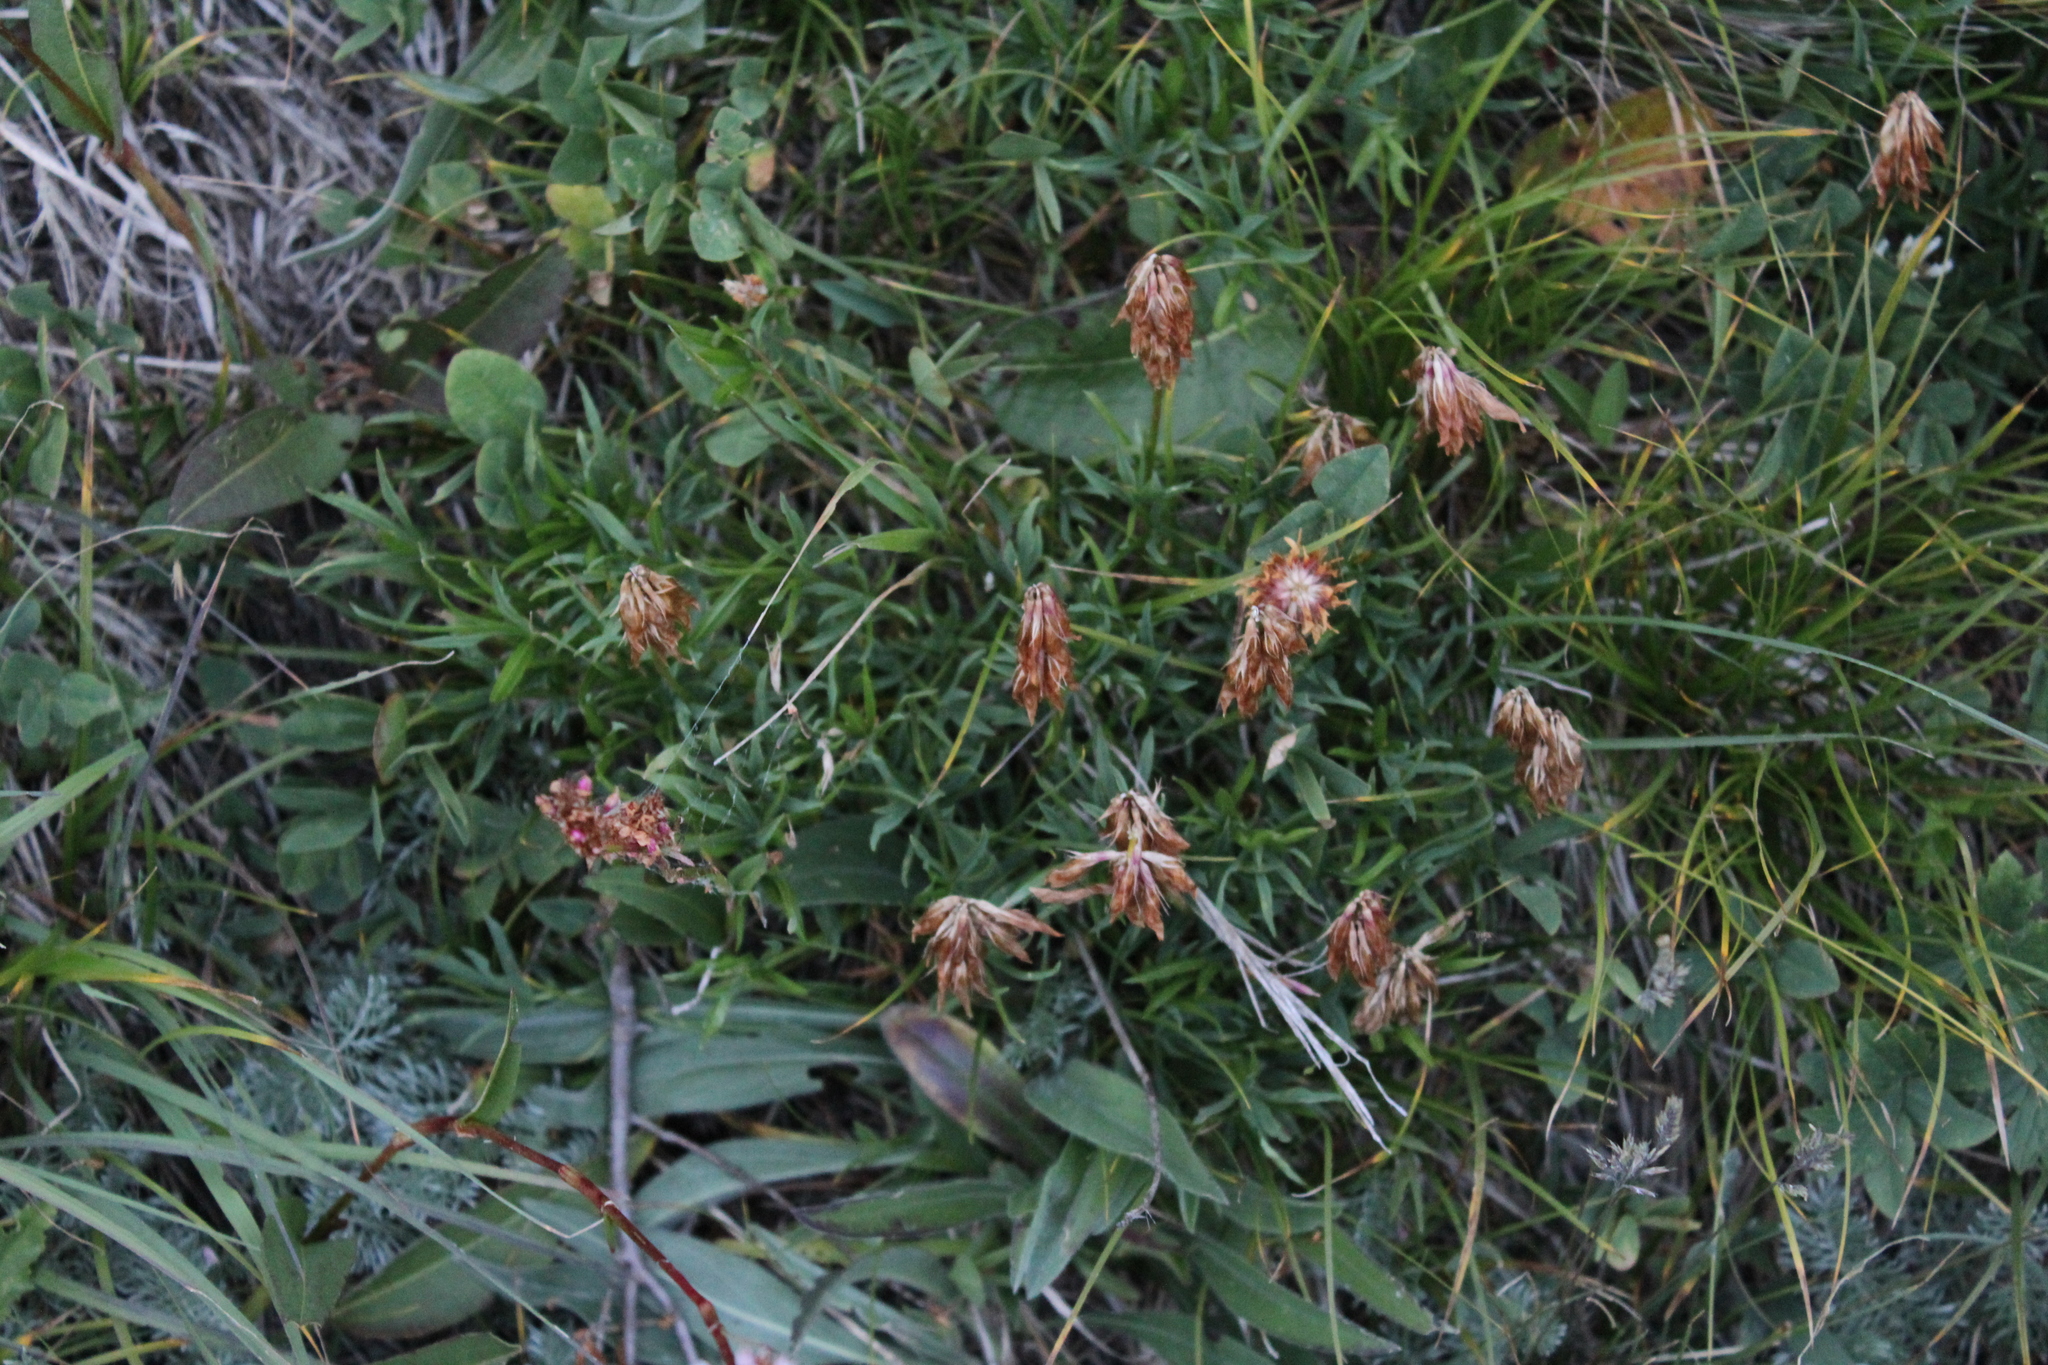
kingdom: Plantae
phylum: Tracheophyta
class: Magnoliopsida
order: Fabales
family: Fabaceae
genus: Trifolium
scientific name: Trifolium polyphyllum
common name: Many-leaf clover
